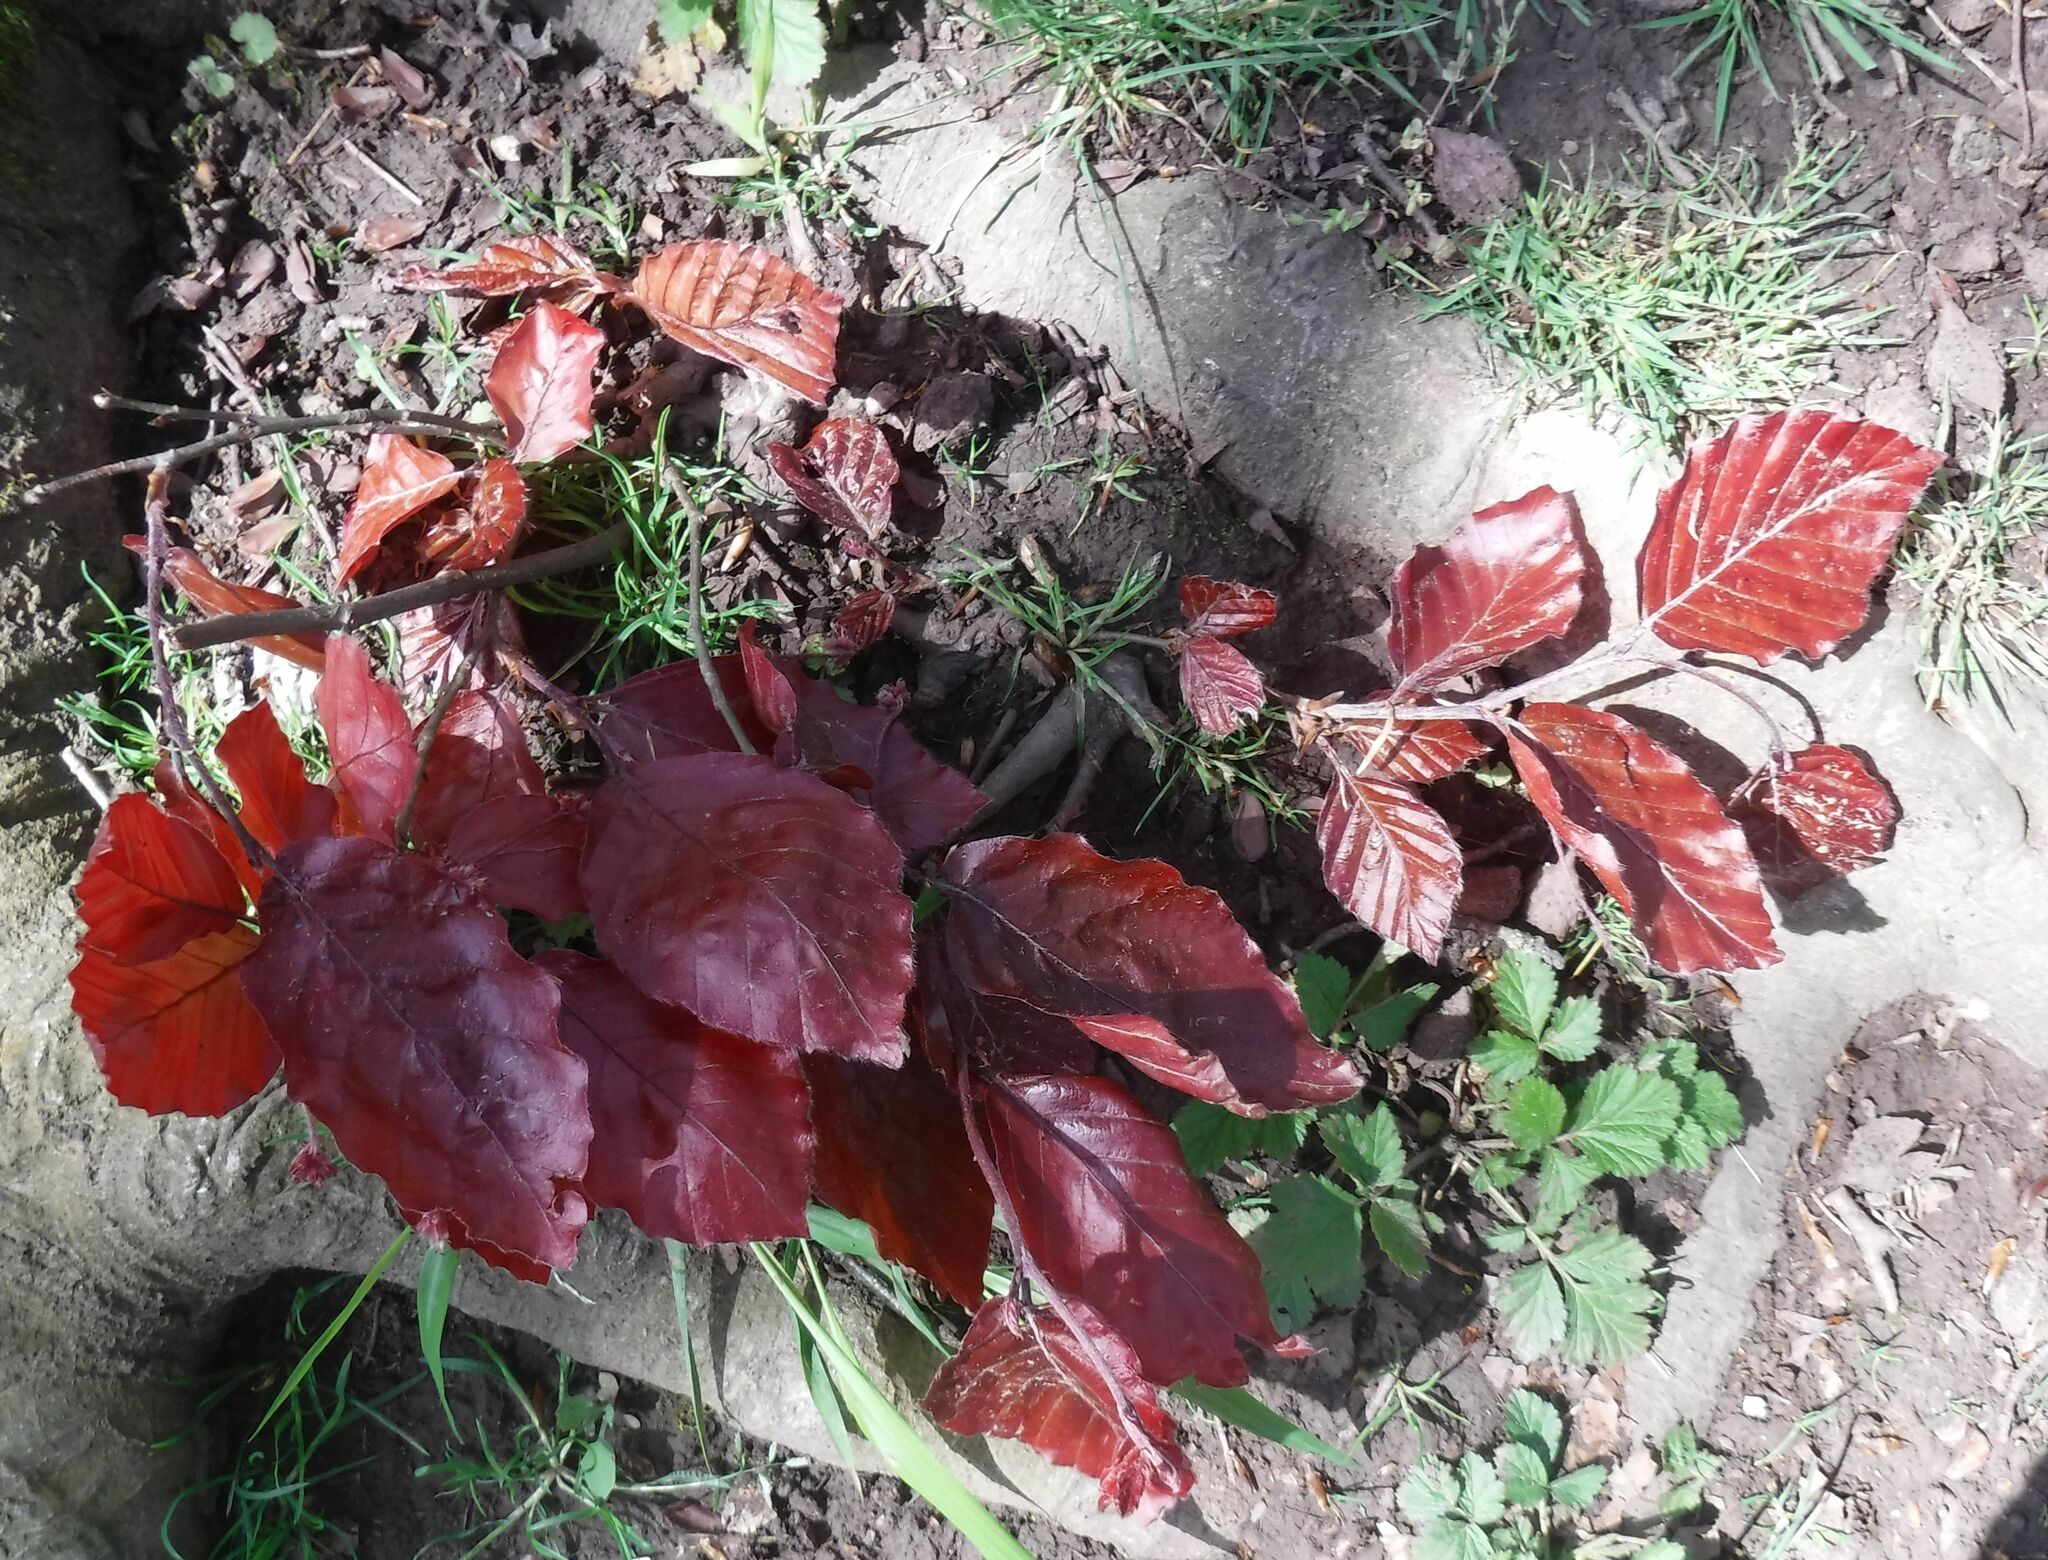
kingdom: Plantae
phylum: Tracheophyta
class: Magnoliopsida
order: Fagales
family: Fagaceae
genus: Fagus
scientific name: Fagus sylvatica
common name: Beech
